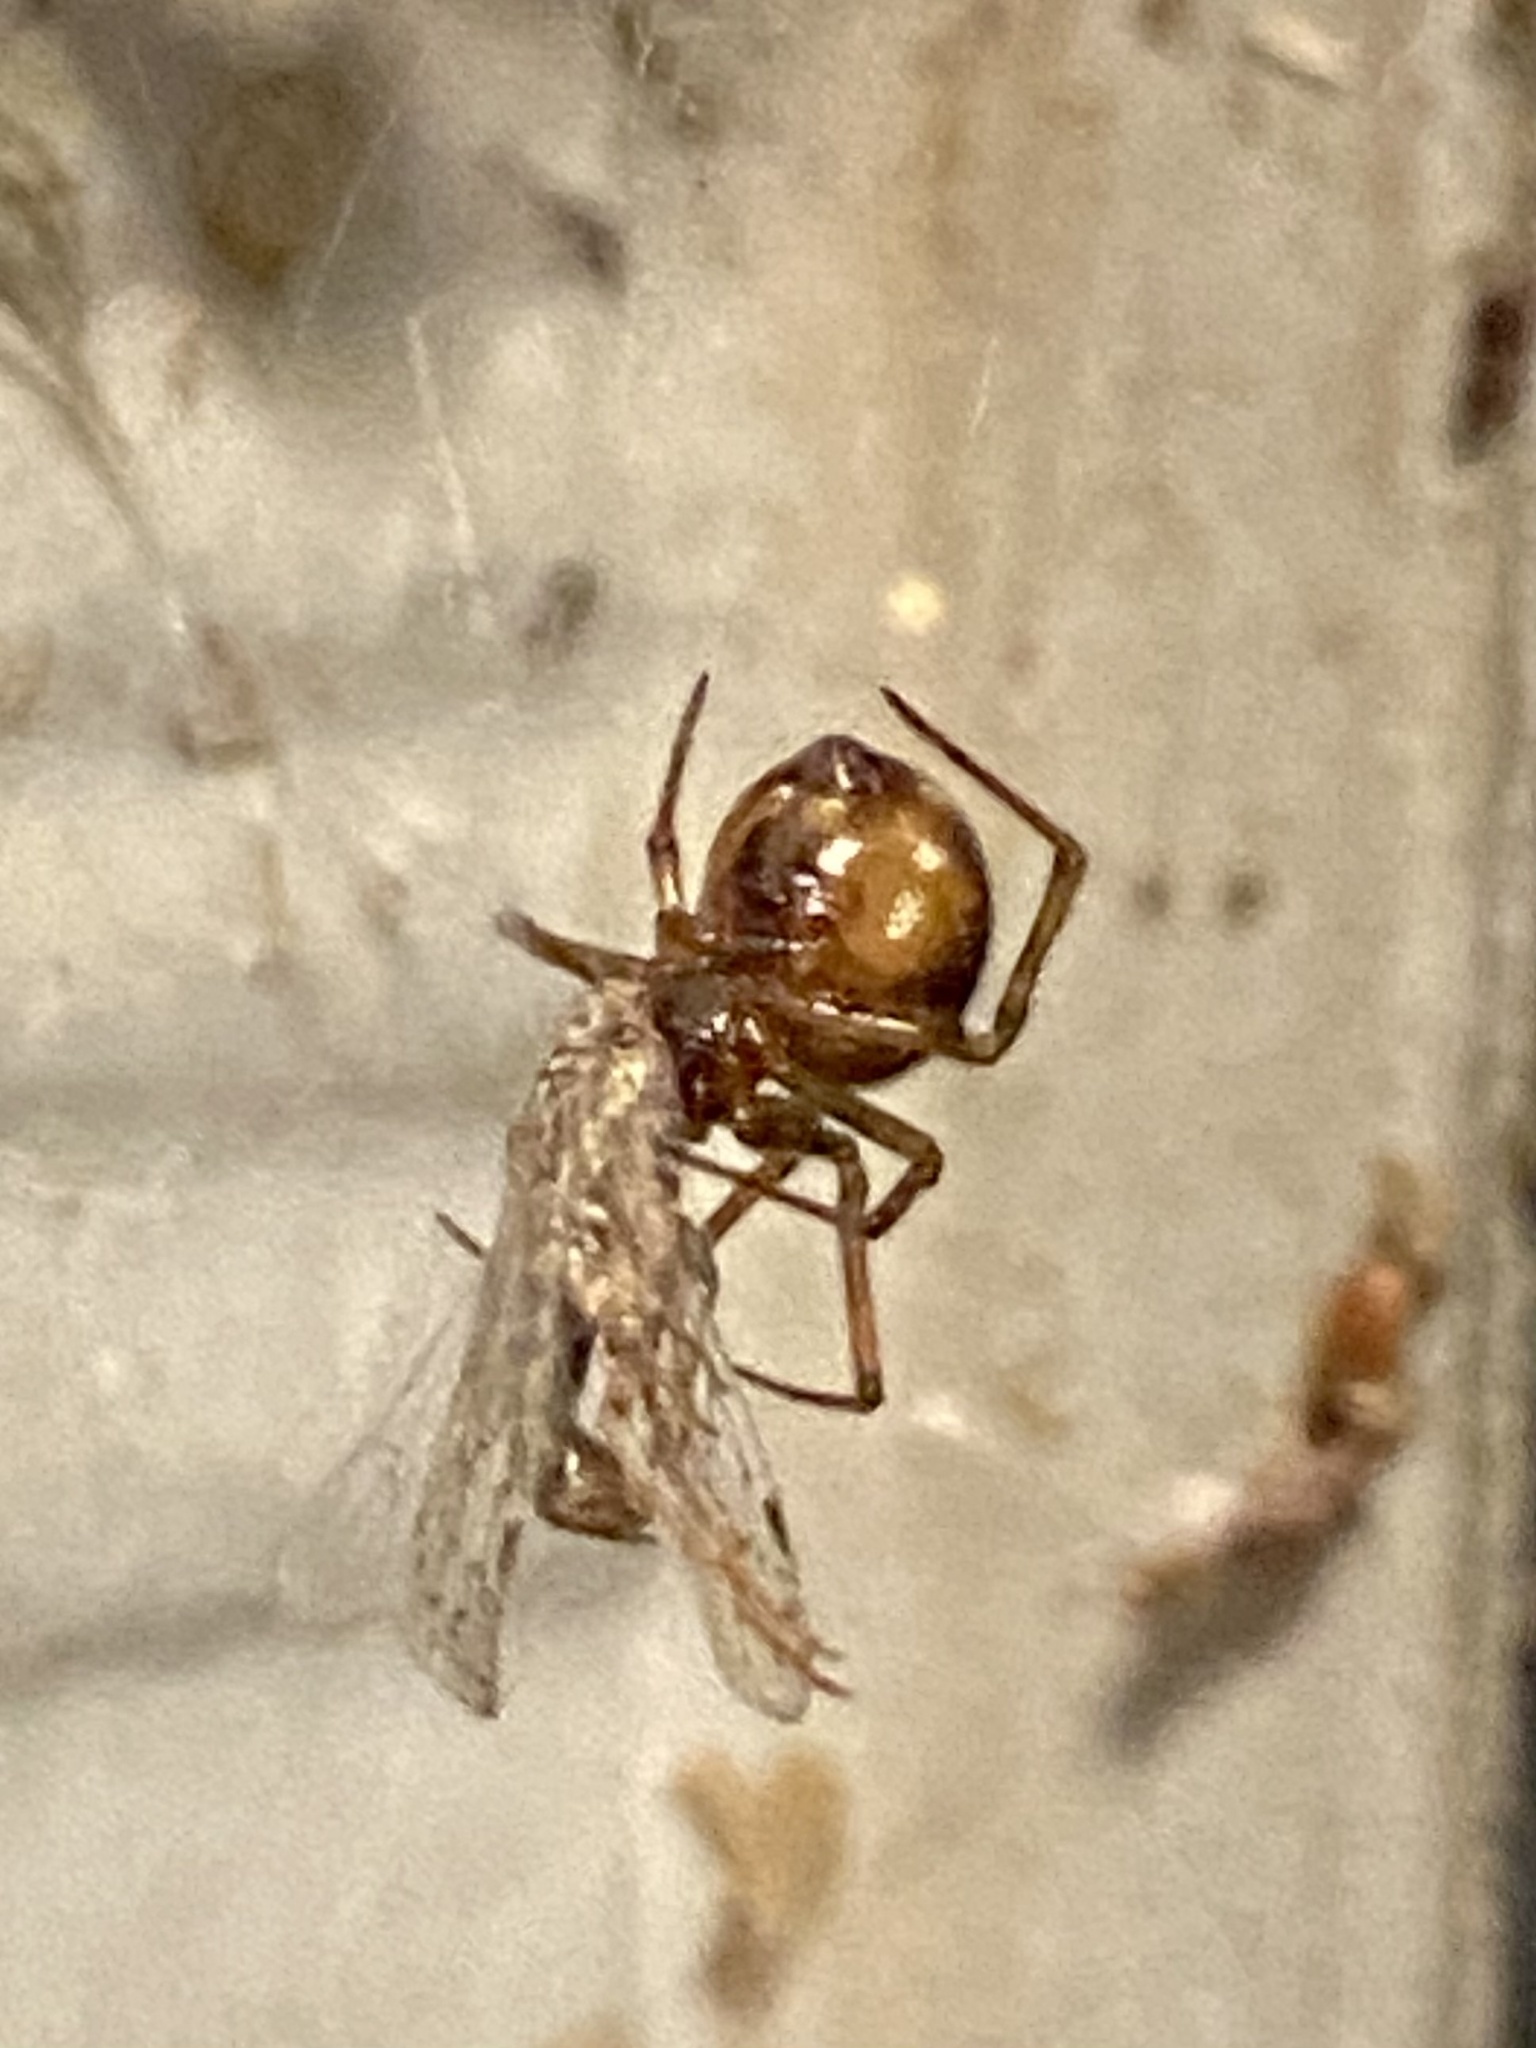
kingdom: Animalia
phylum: Arthropoda
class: Arachnida
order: Araneae
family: Theridiidae
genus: Steatoda
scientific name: Steatoda triangulosa
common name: Triangulate bud spider
